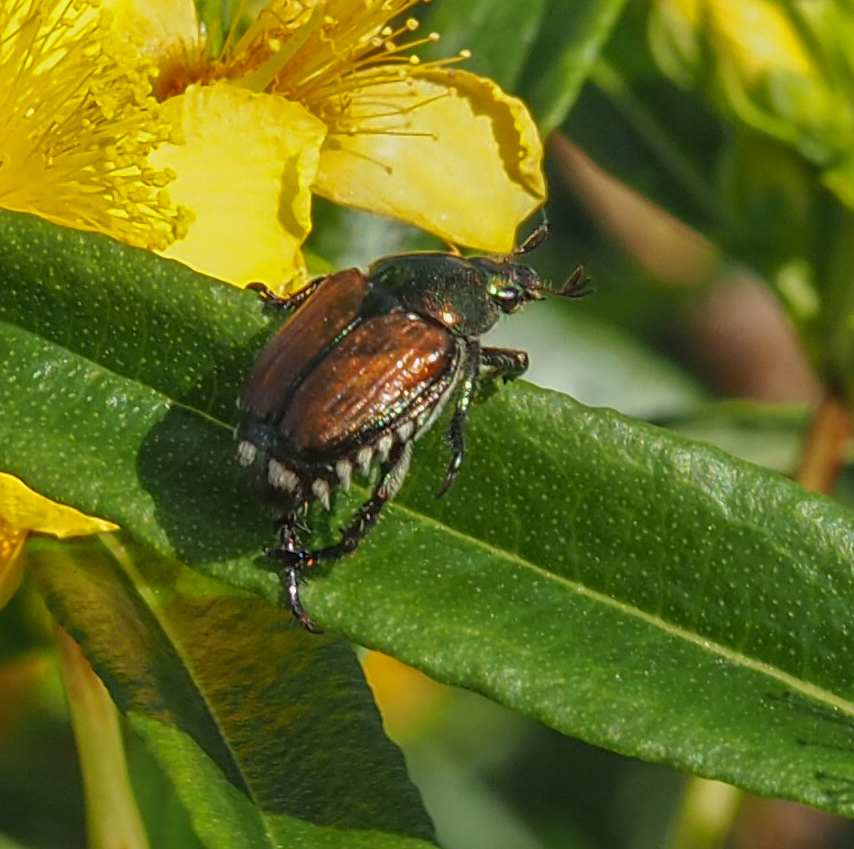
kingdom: Animalia
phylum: Arthropoda
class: Insecta
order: Coleoptera
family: Scarabaeidae
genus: Popillia
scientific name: Popillia japonica
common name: Japanese beetle
